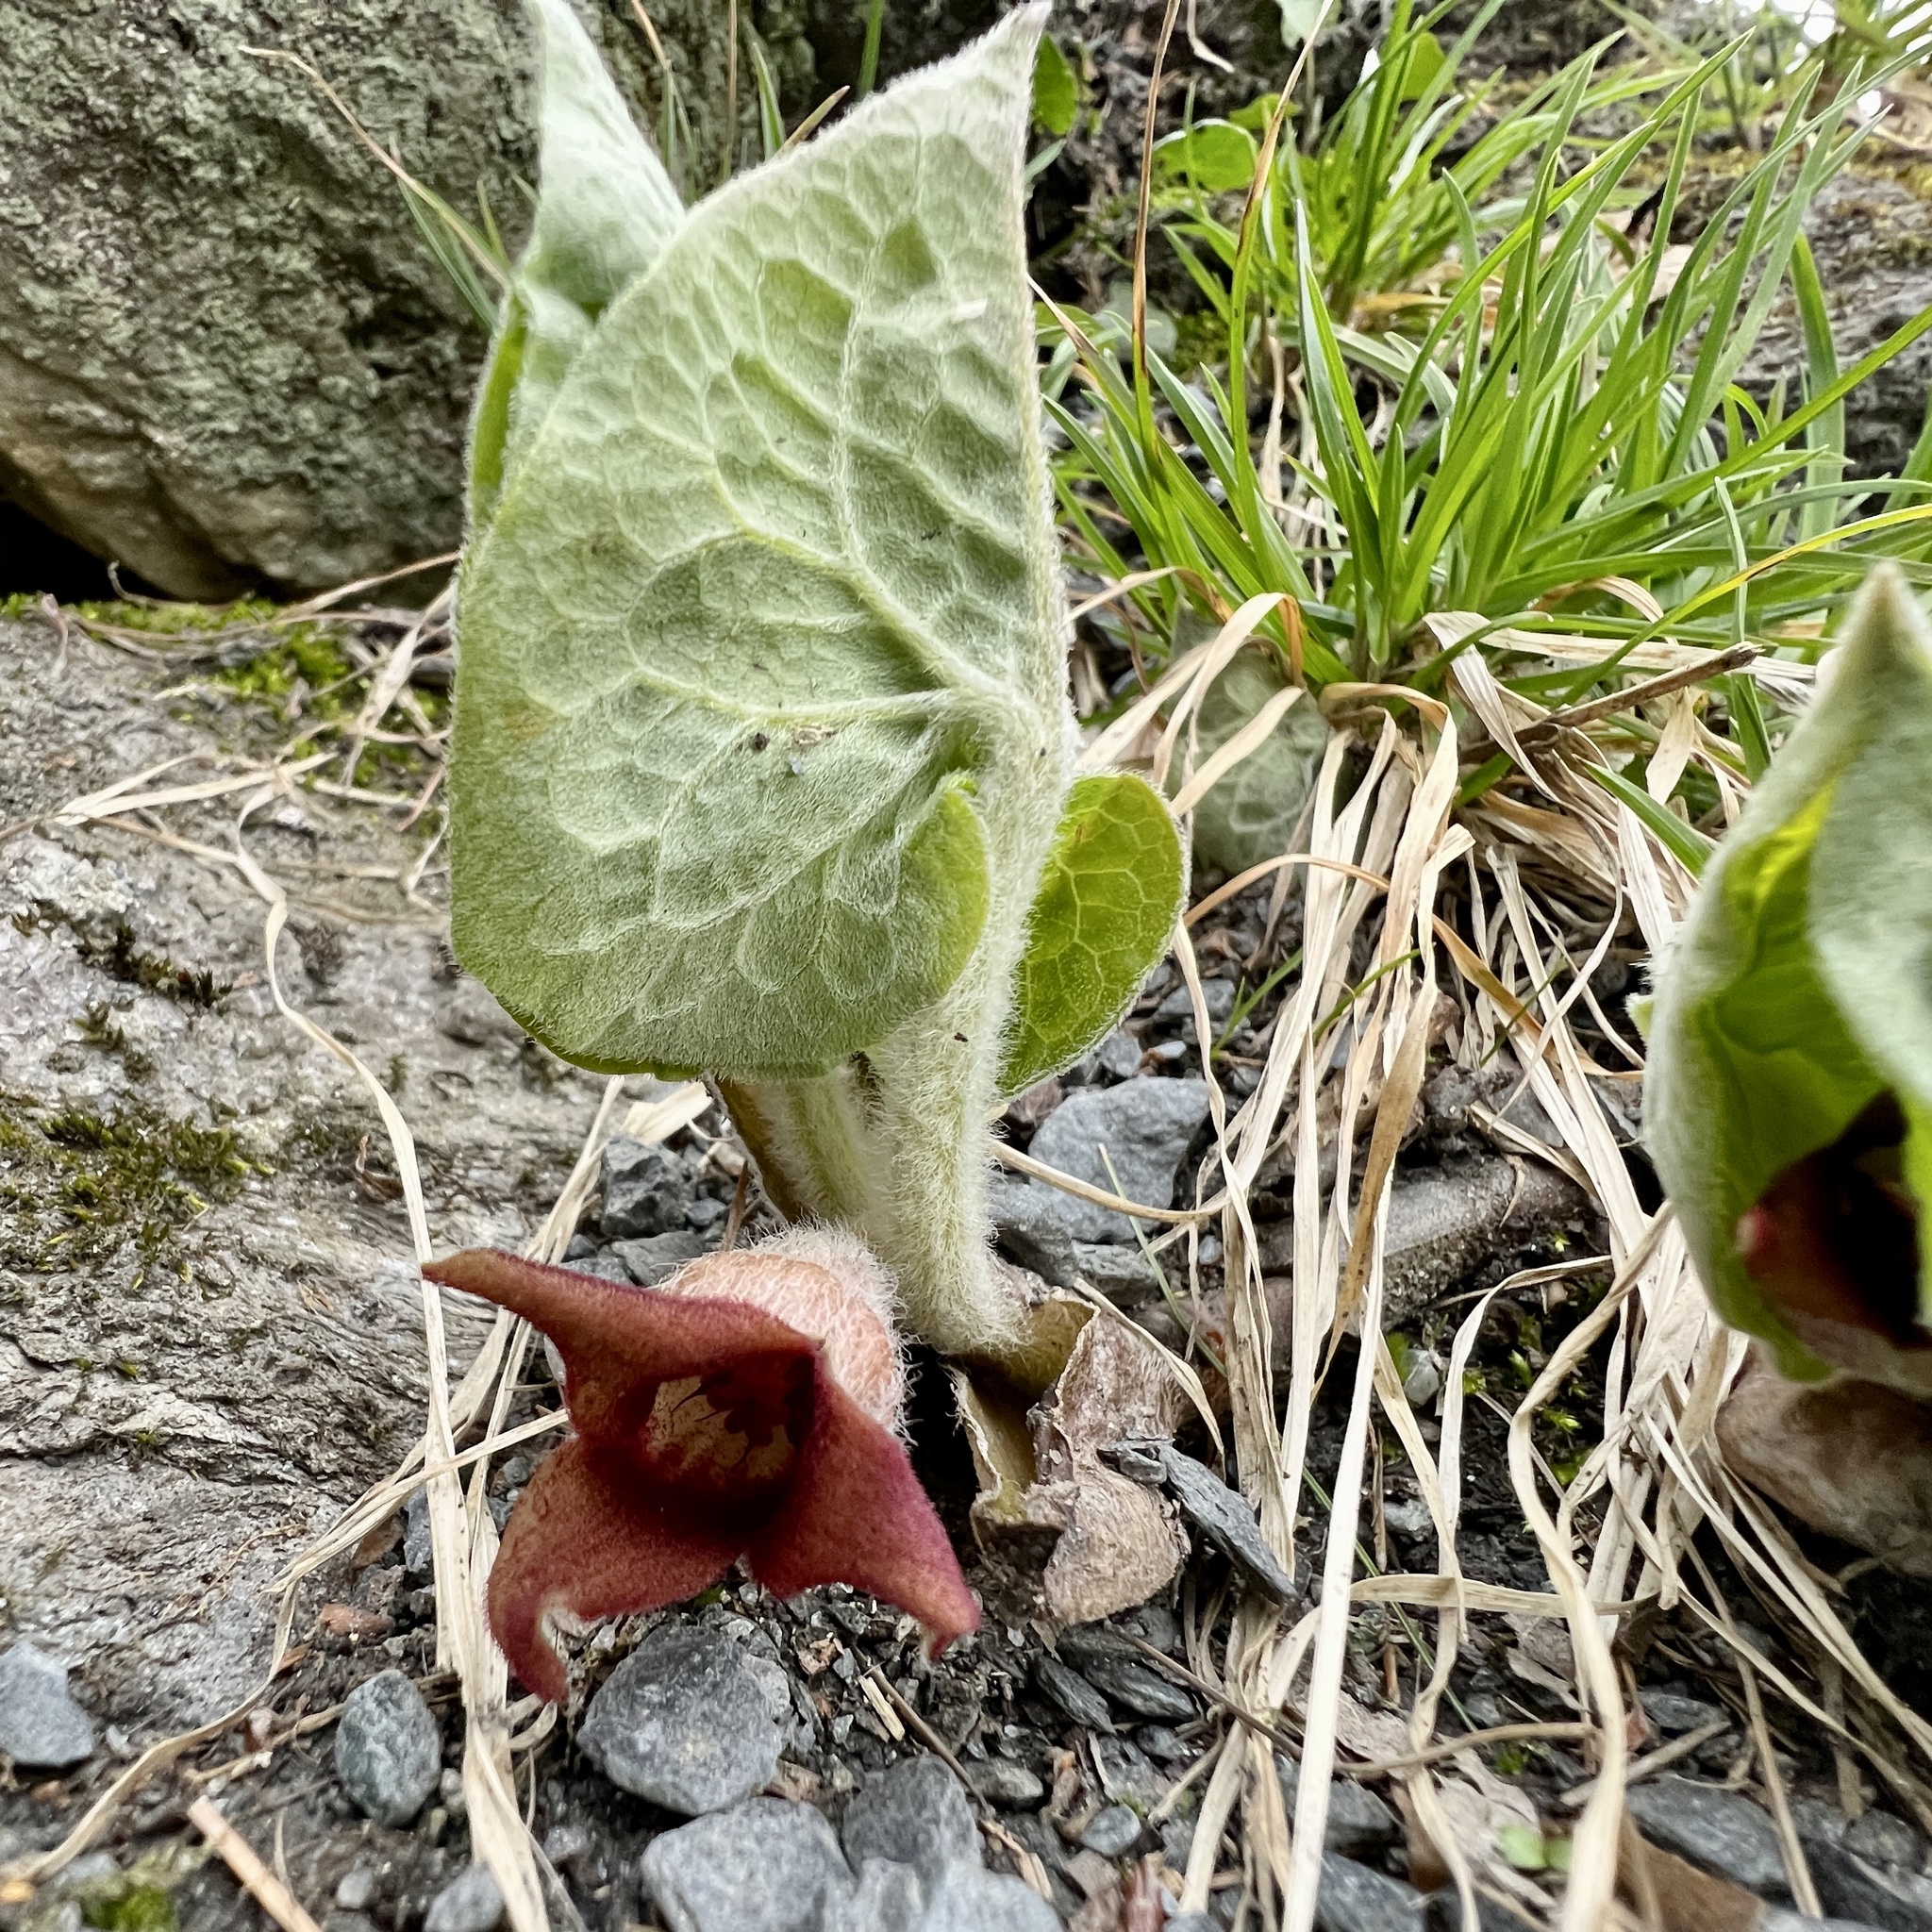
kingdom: Plantae
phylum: Tracheophyta
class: Magnoliopsida
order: Piperales
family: Aristolochiaceae
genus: Asarum
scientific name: Asarum canadense
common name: Wild ginger
